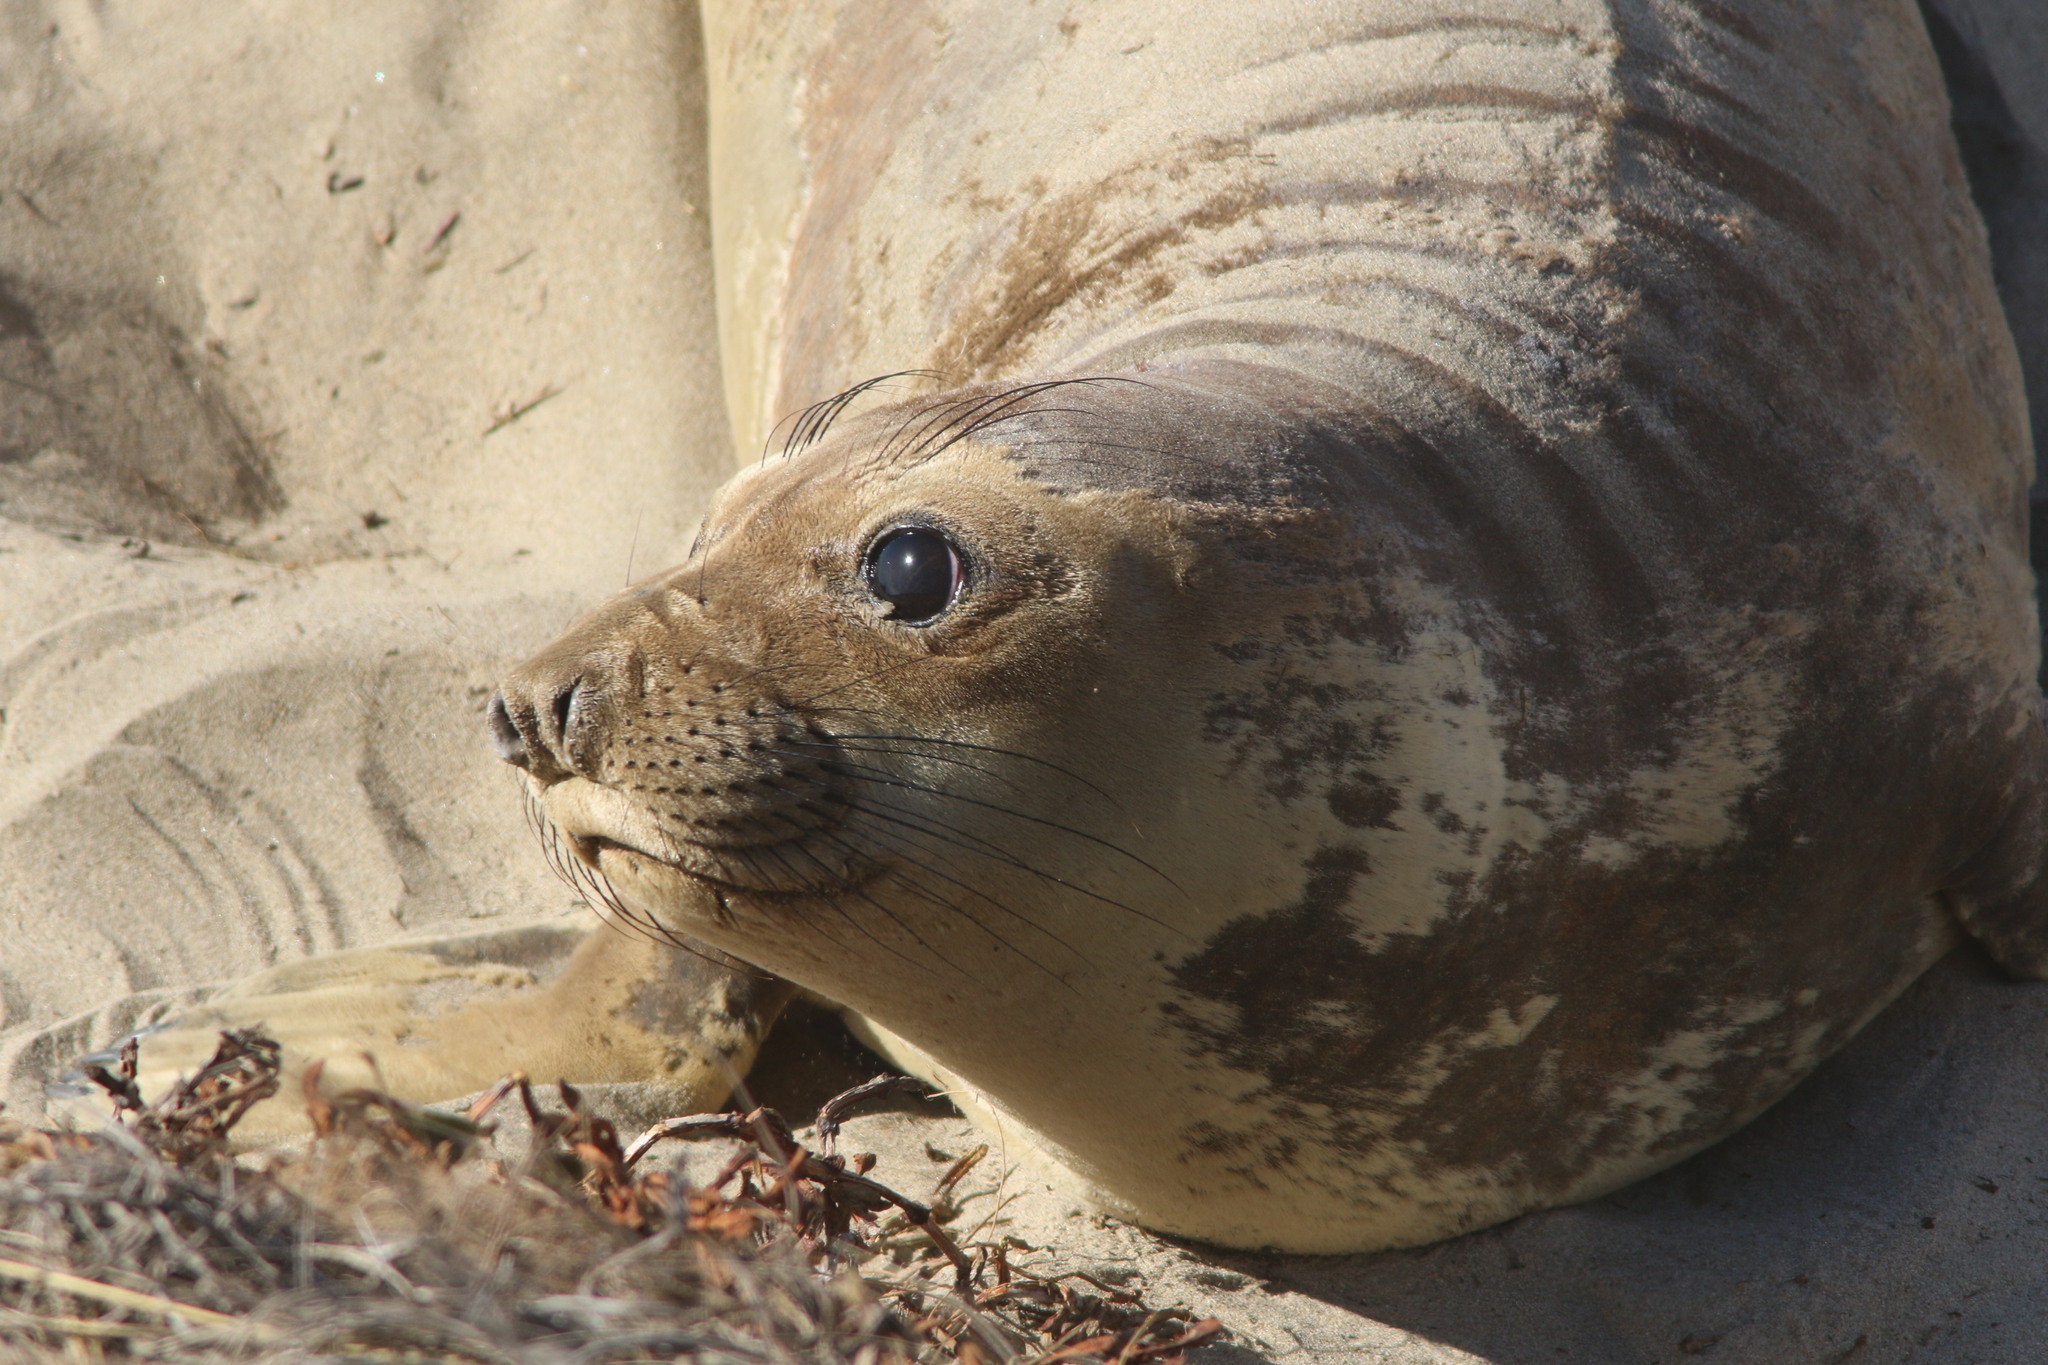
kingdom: Animalia
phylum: Chordata
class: Mammalia
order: Carnivora
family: Phocidae
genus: Mirounga
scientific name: Mirounga angustirostris
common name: Northern elephant seal
